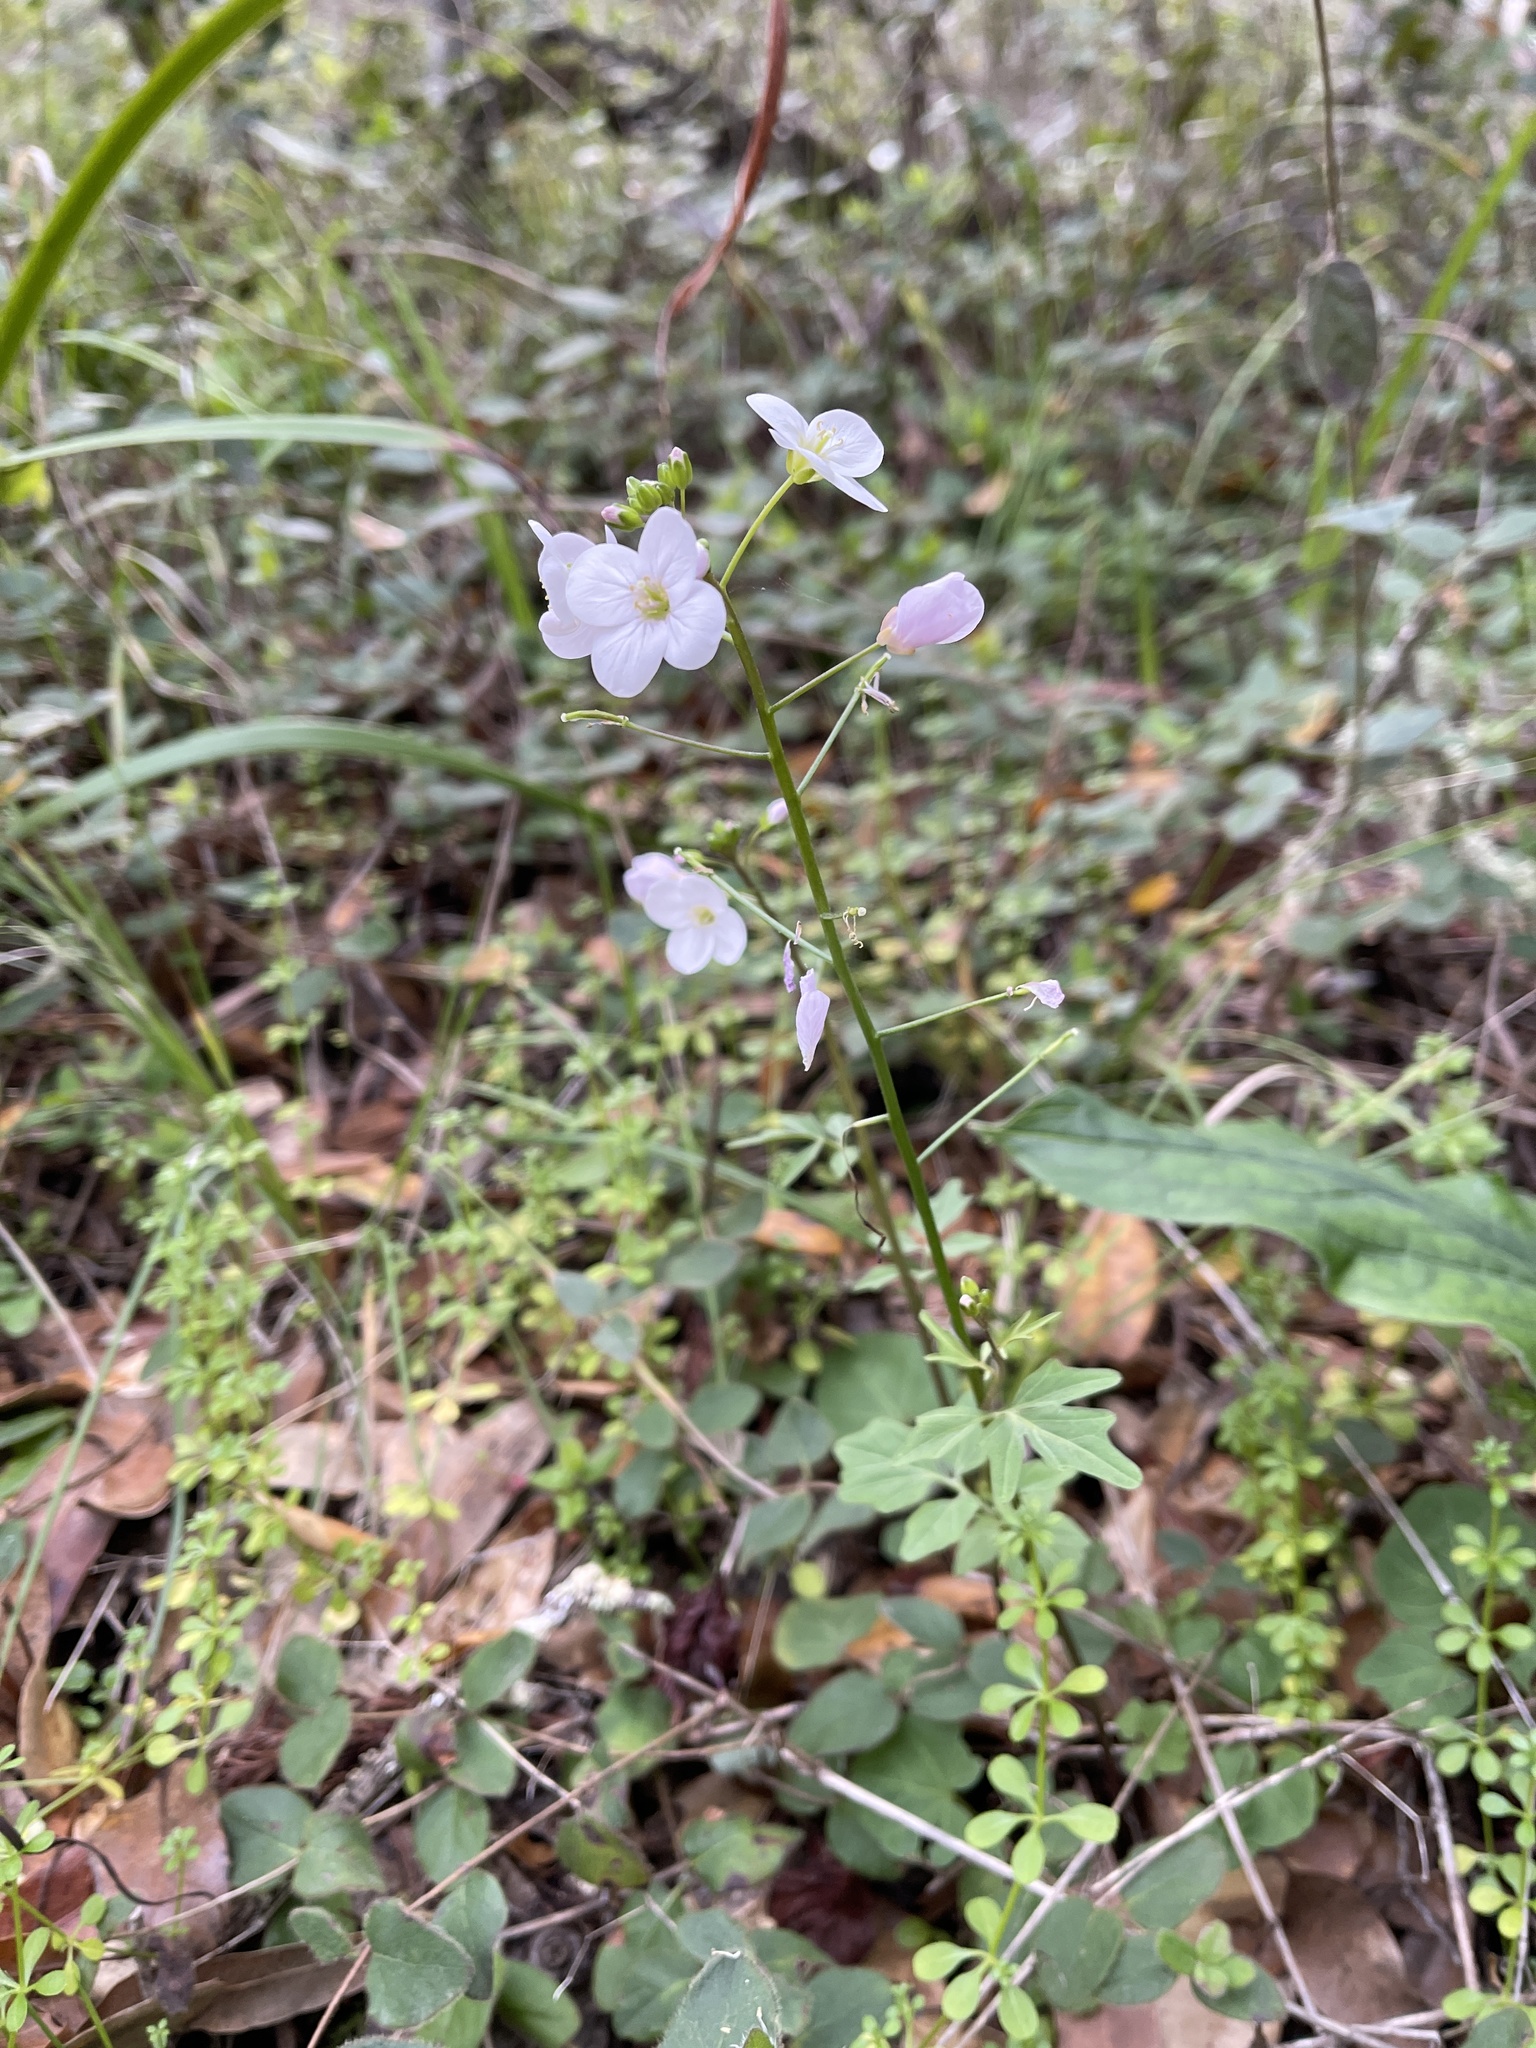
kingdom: Plantae
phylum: Tracheophyta
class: Magnoliopsida
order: Brassicales
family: Brassicaceae
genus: Cardamine
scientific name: Cardamine californica
